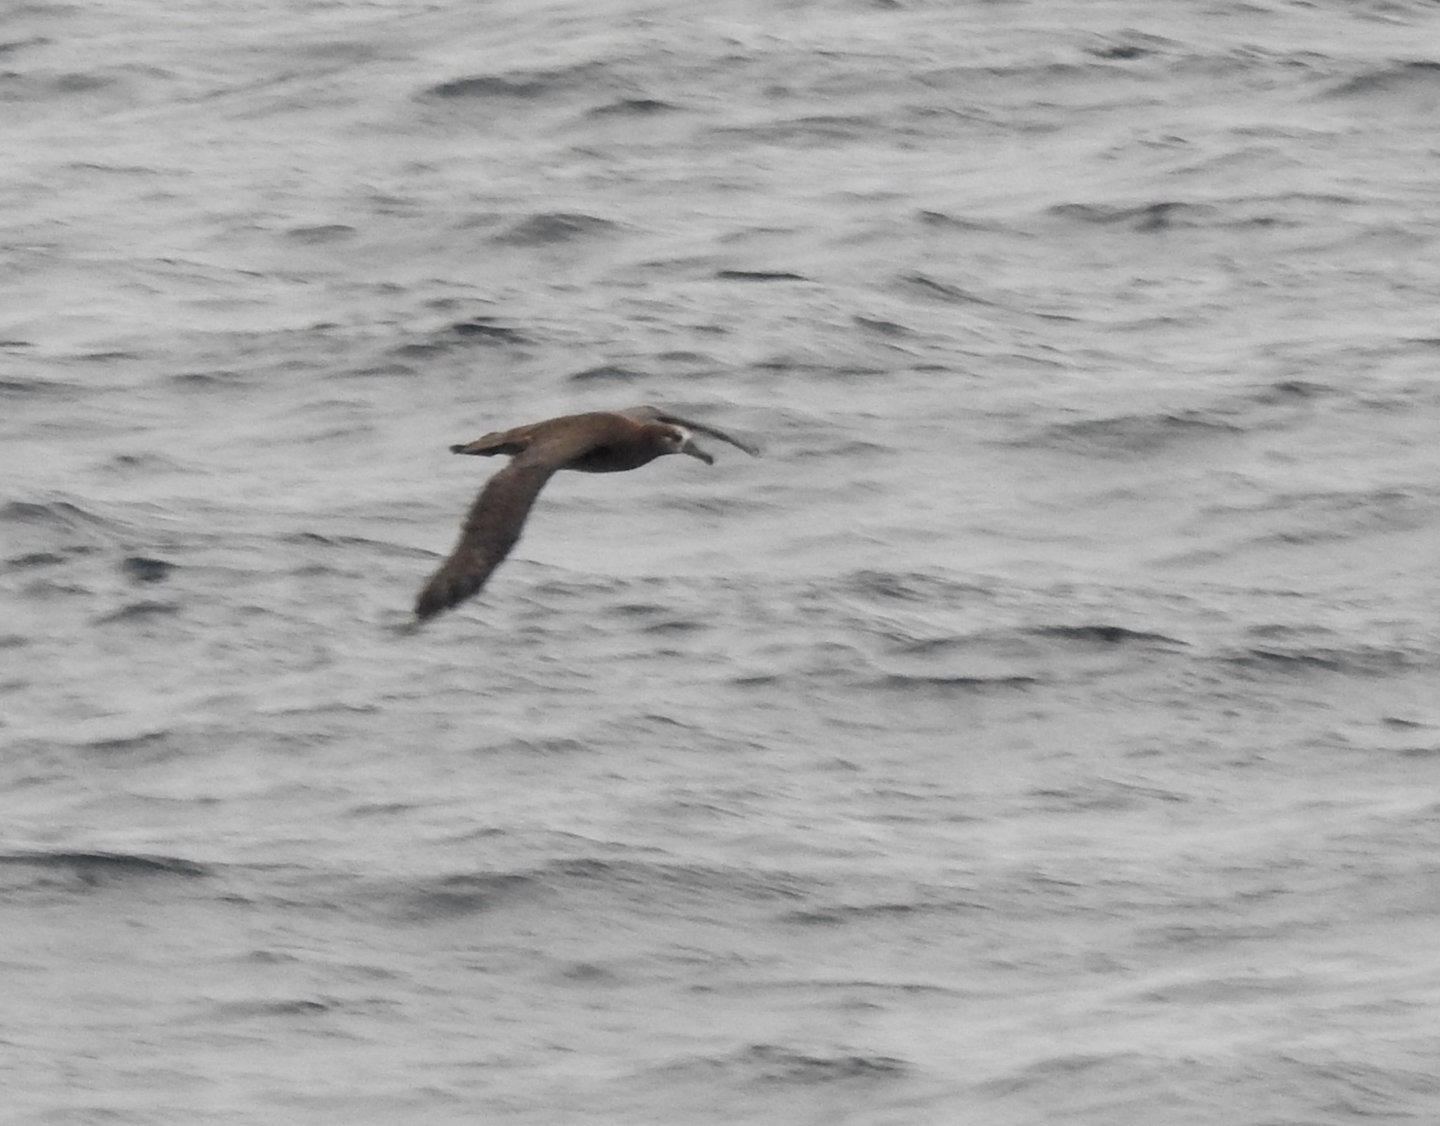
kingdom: Animalia
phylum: Chordata
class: Aves
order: Procellariiformes
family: Diomedeidae
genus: Phoebastria
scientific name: Phoebastria nigripes
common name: Black-footed albatross
